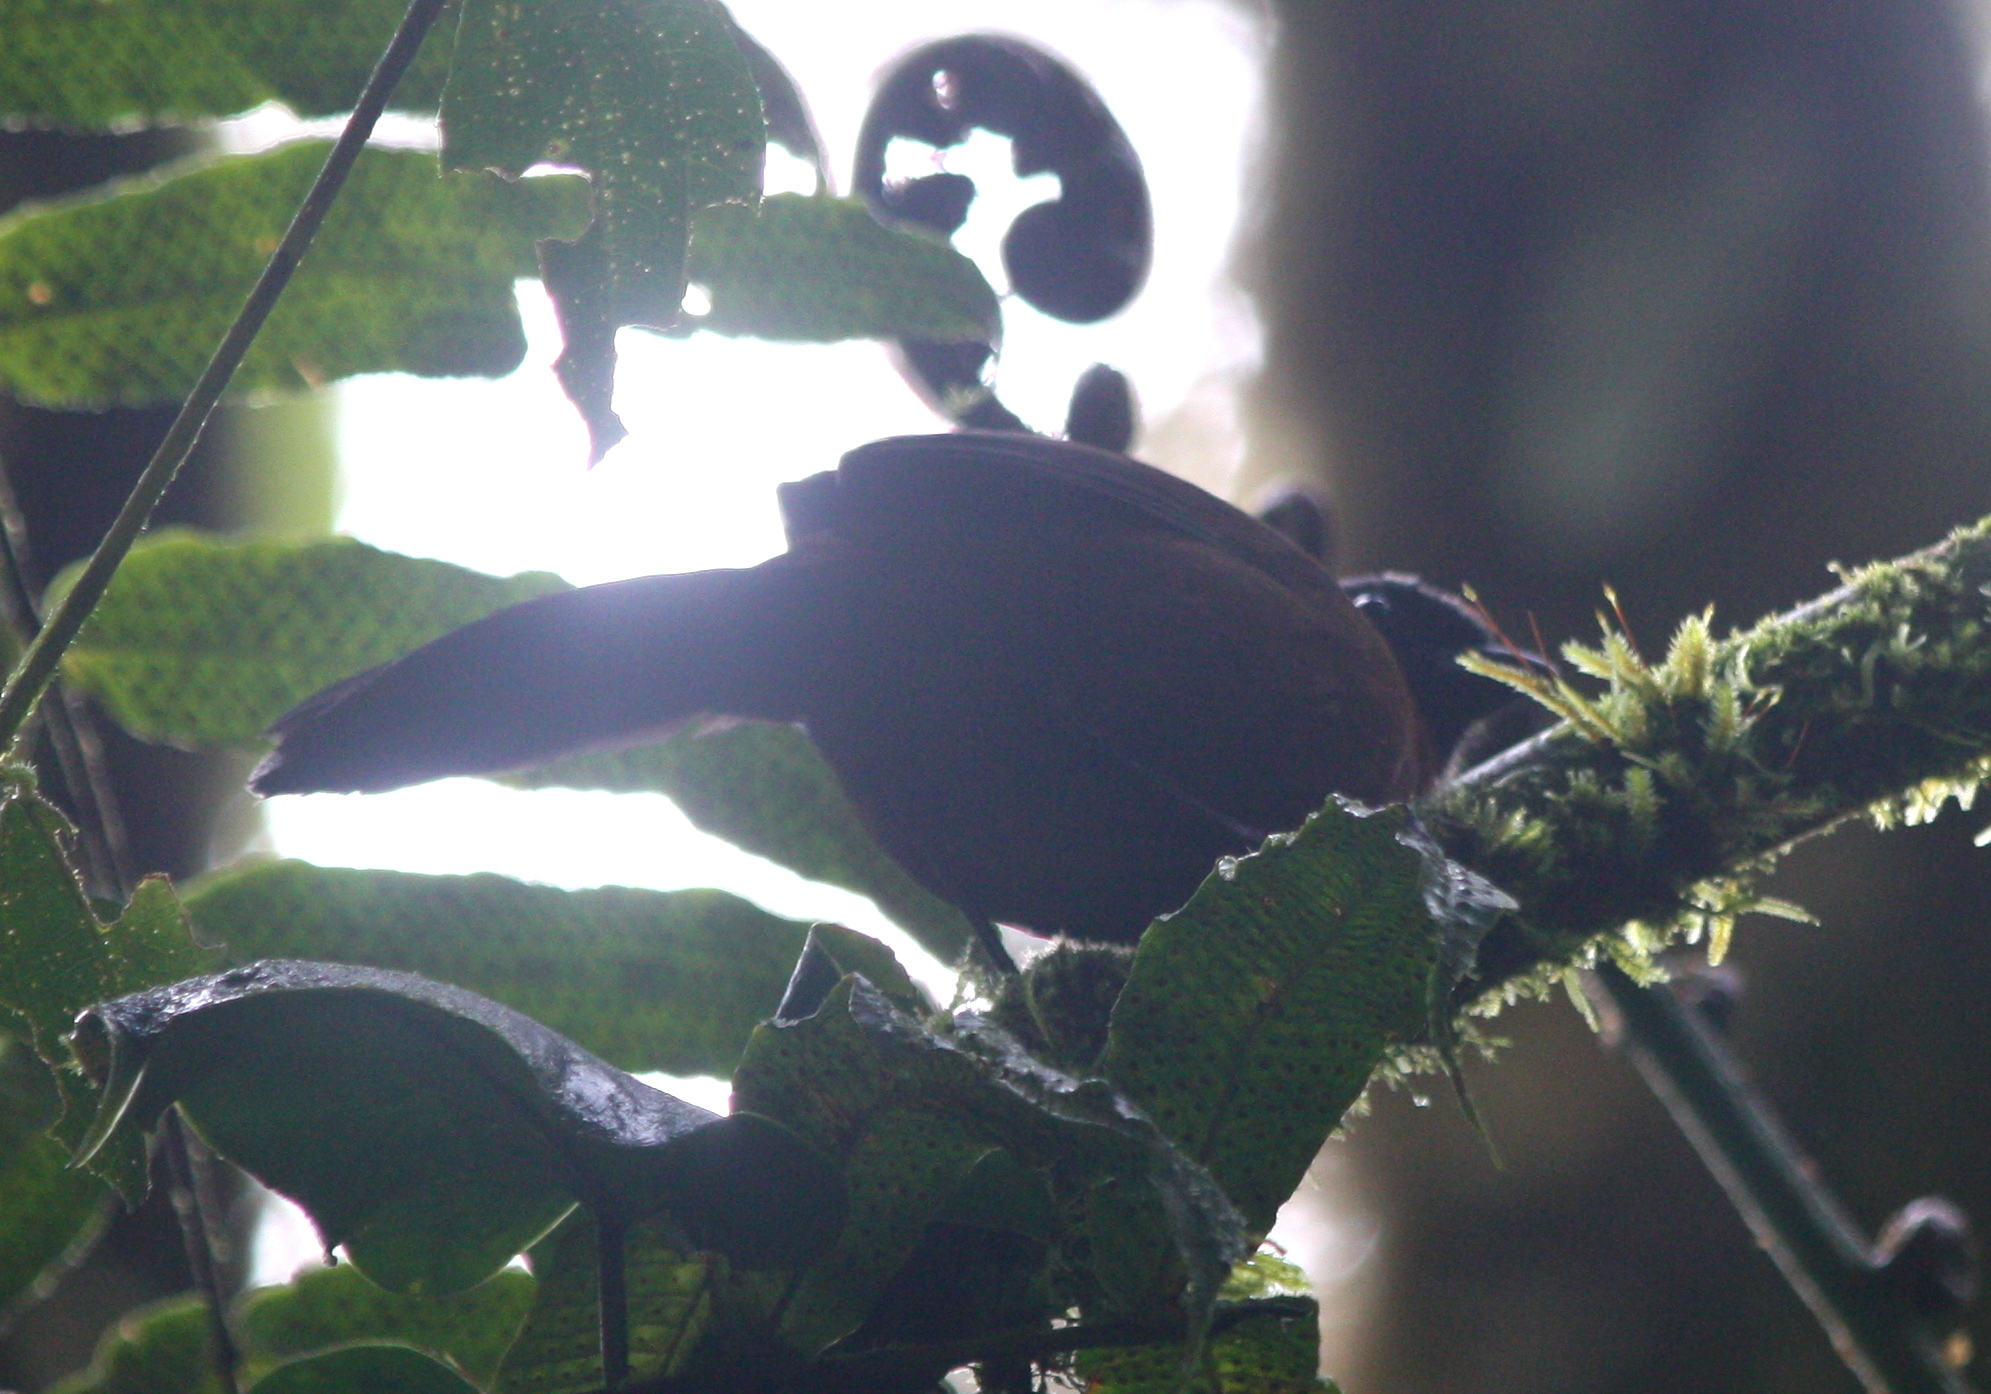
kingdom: Animalia
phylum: Chordata
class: Aves
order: Passeriformes
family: Passerellidae
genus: Oreothraupis
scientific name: Oreothraupis arremonops
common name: Tanager finch
